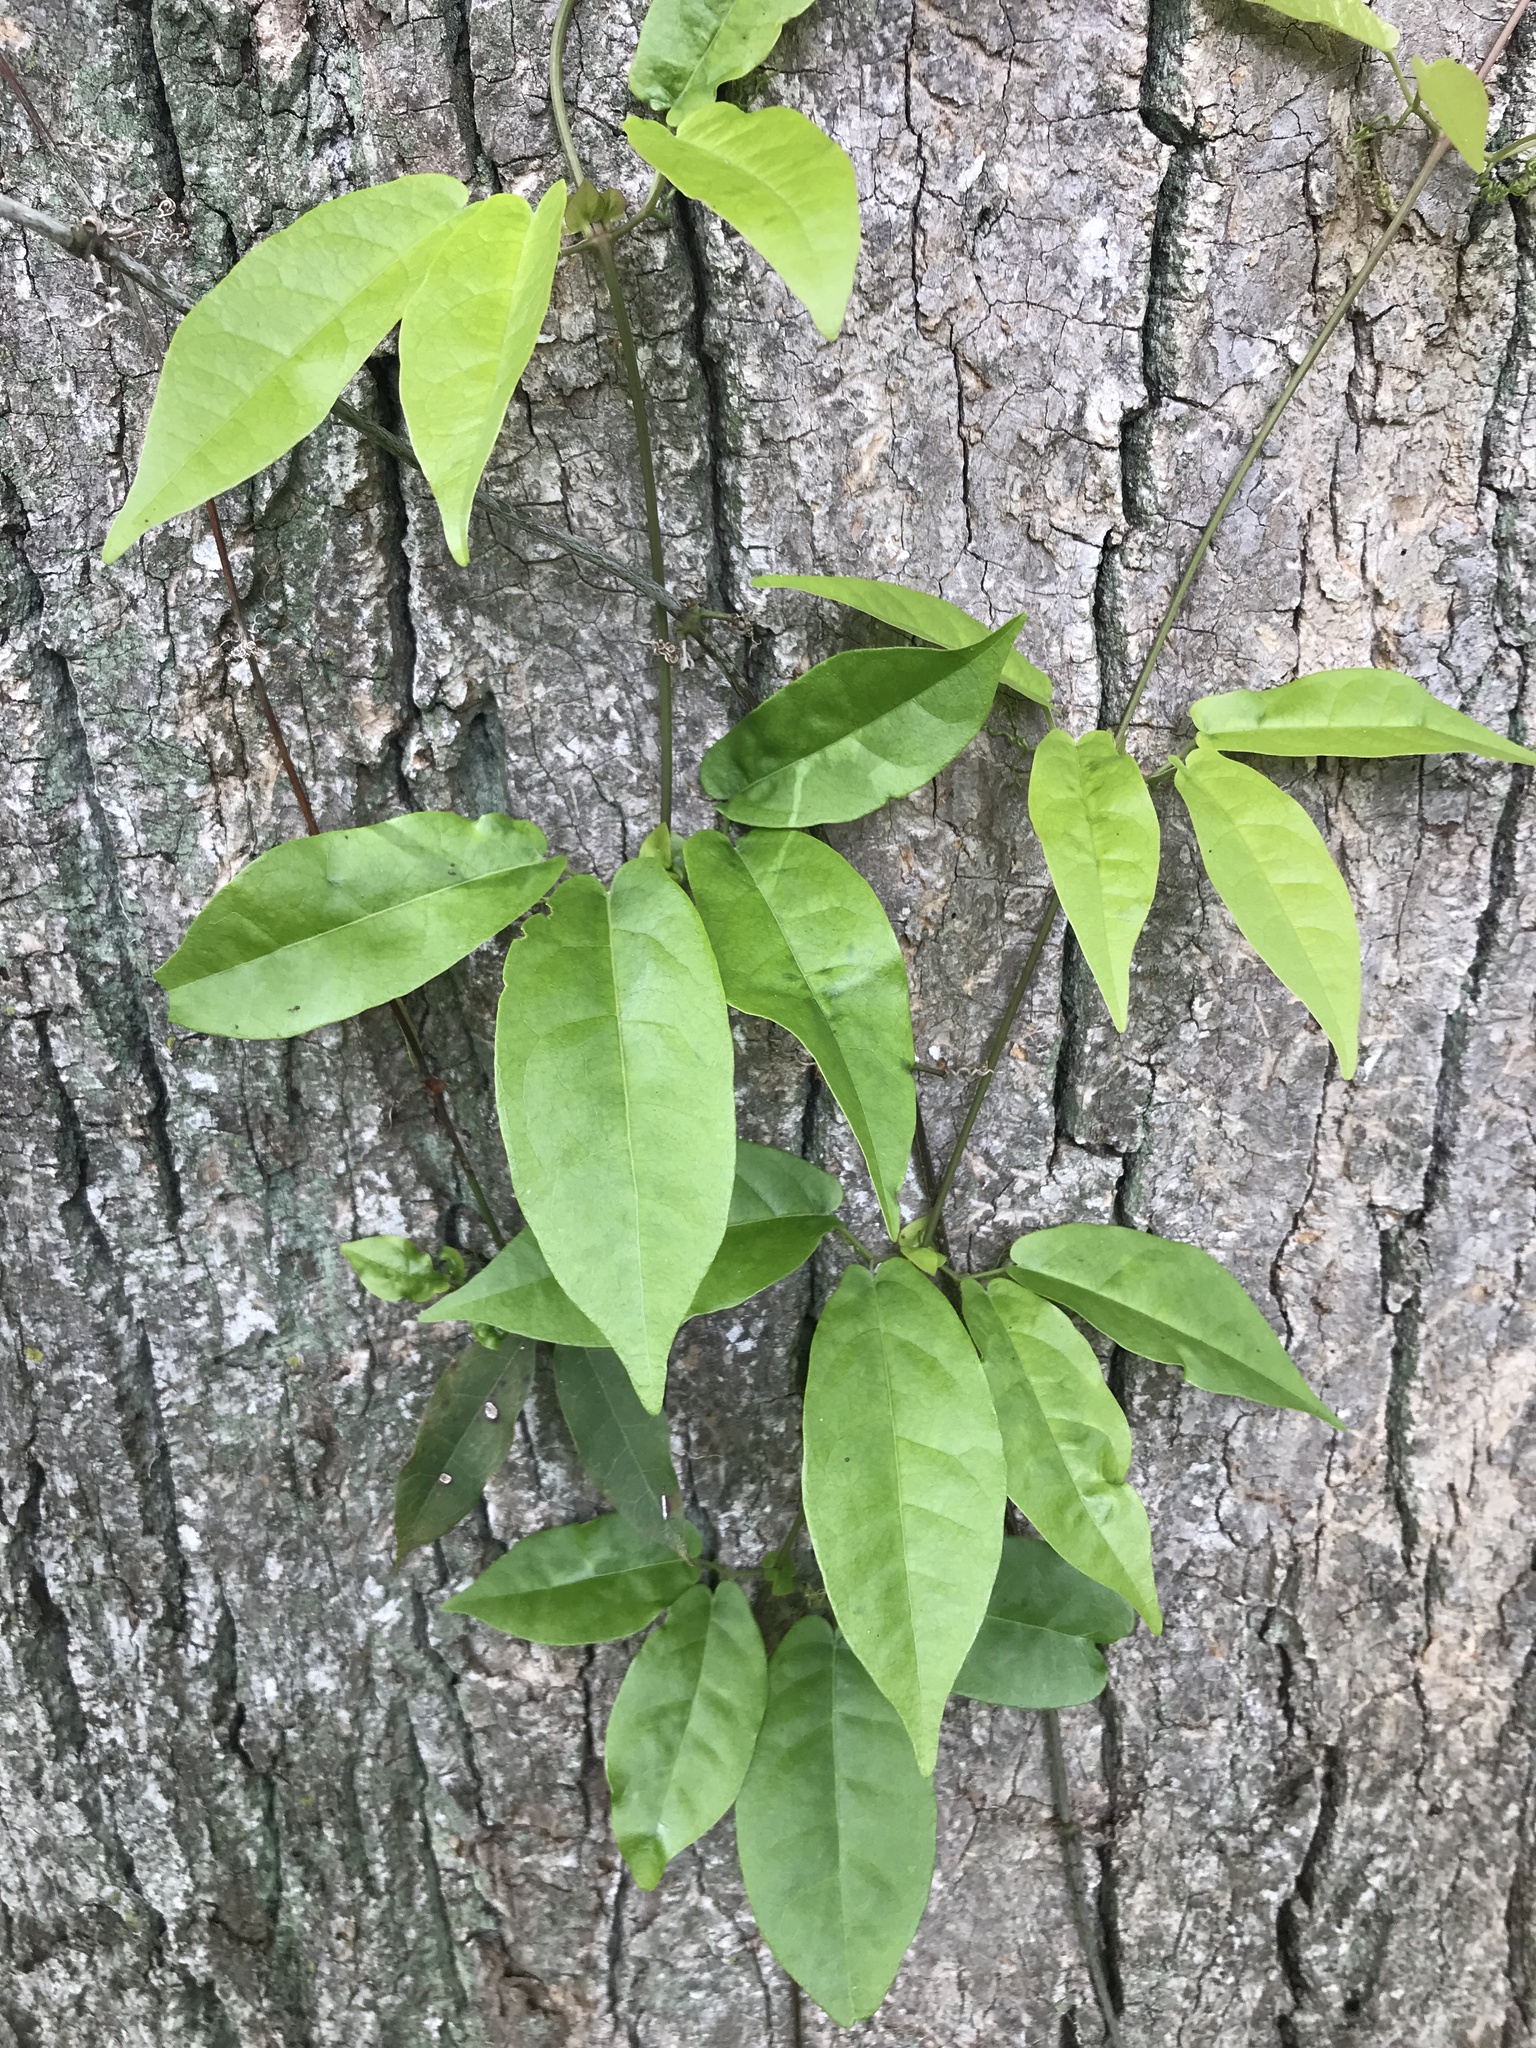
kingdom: Plantae
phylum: Tracheophyta
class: Magnoliopsida
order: Lamiales
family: Bignoniaceae
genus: Bignonia
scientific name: Bignonia capreolata
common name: Crossvine
